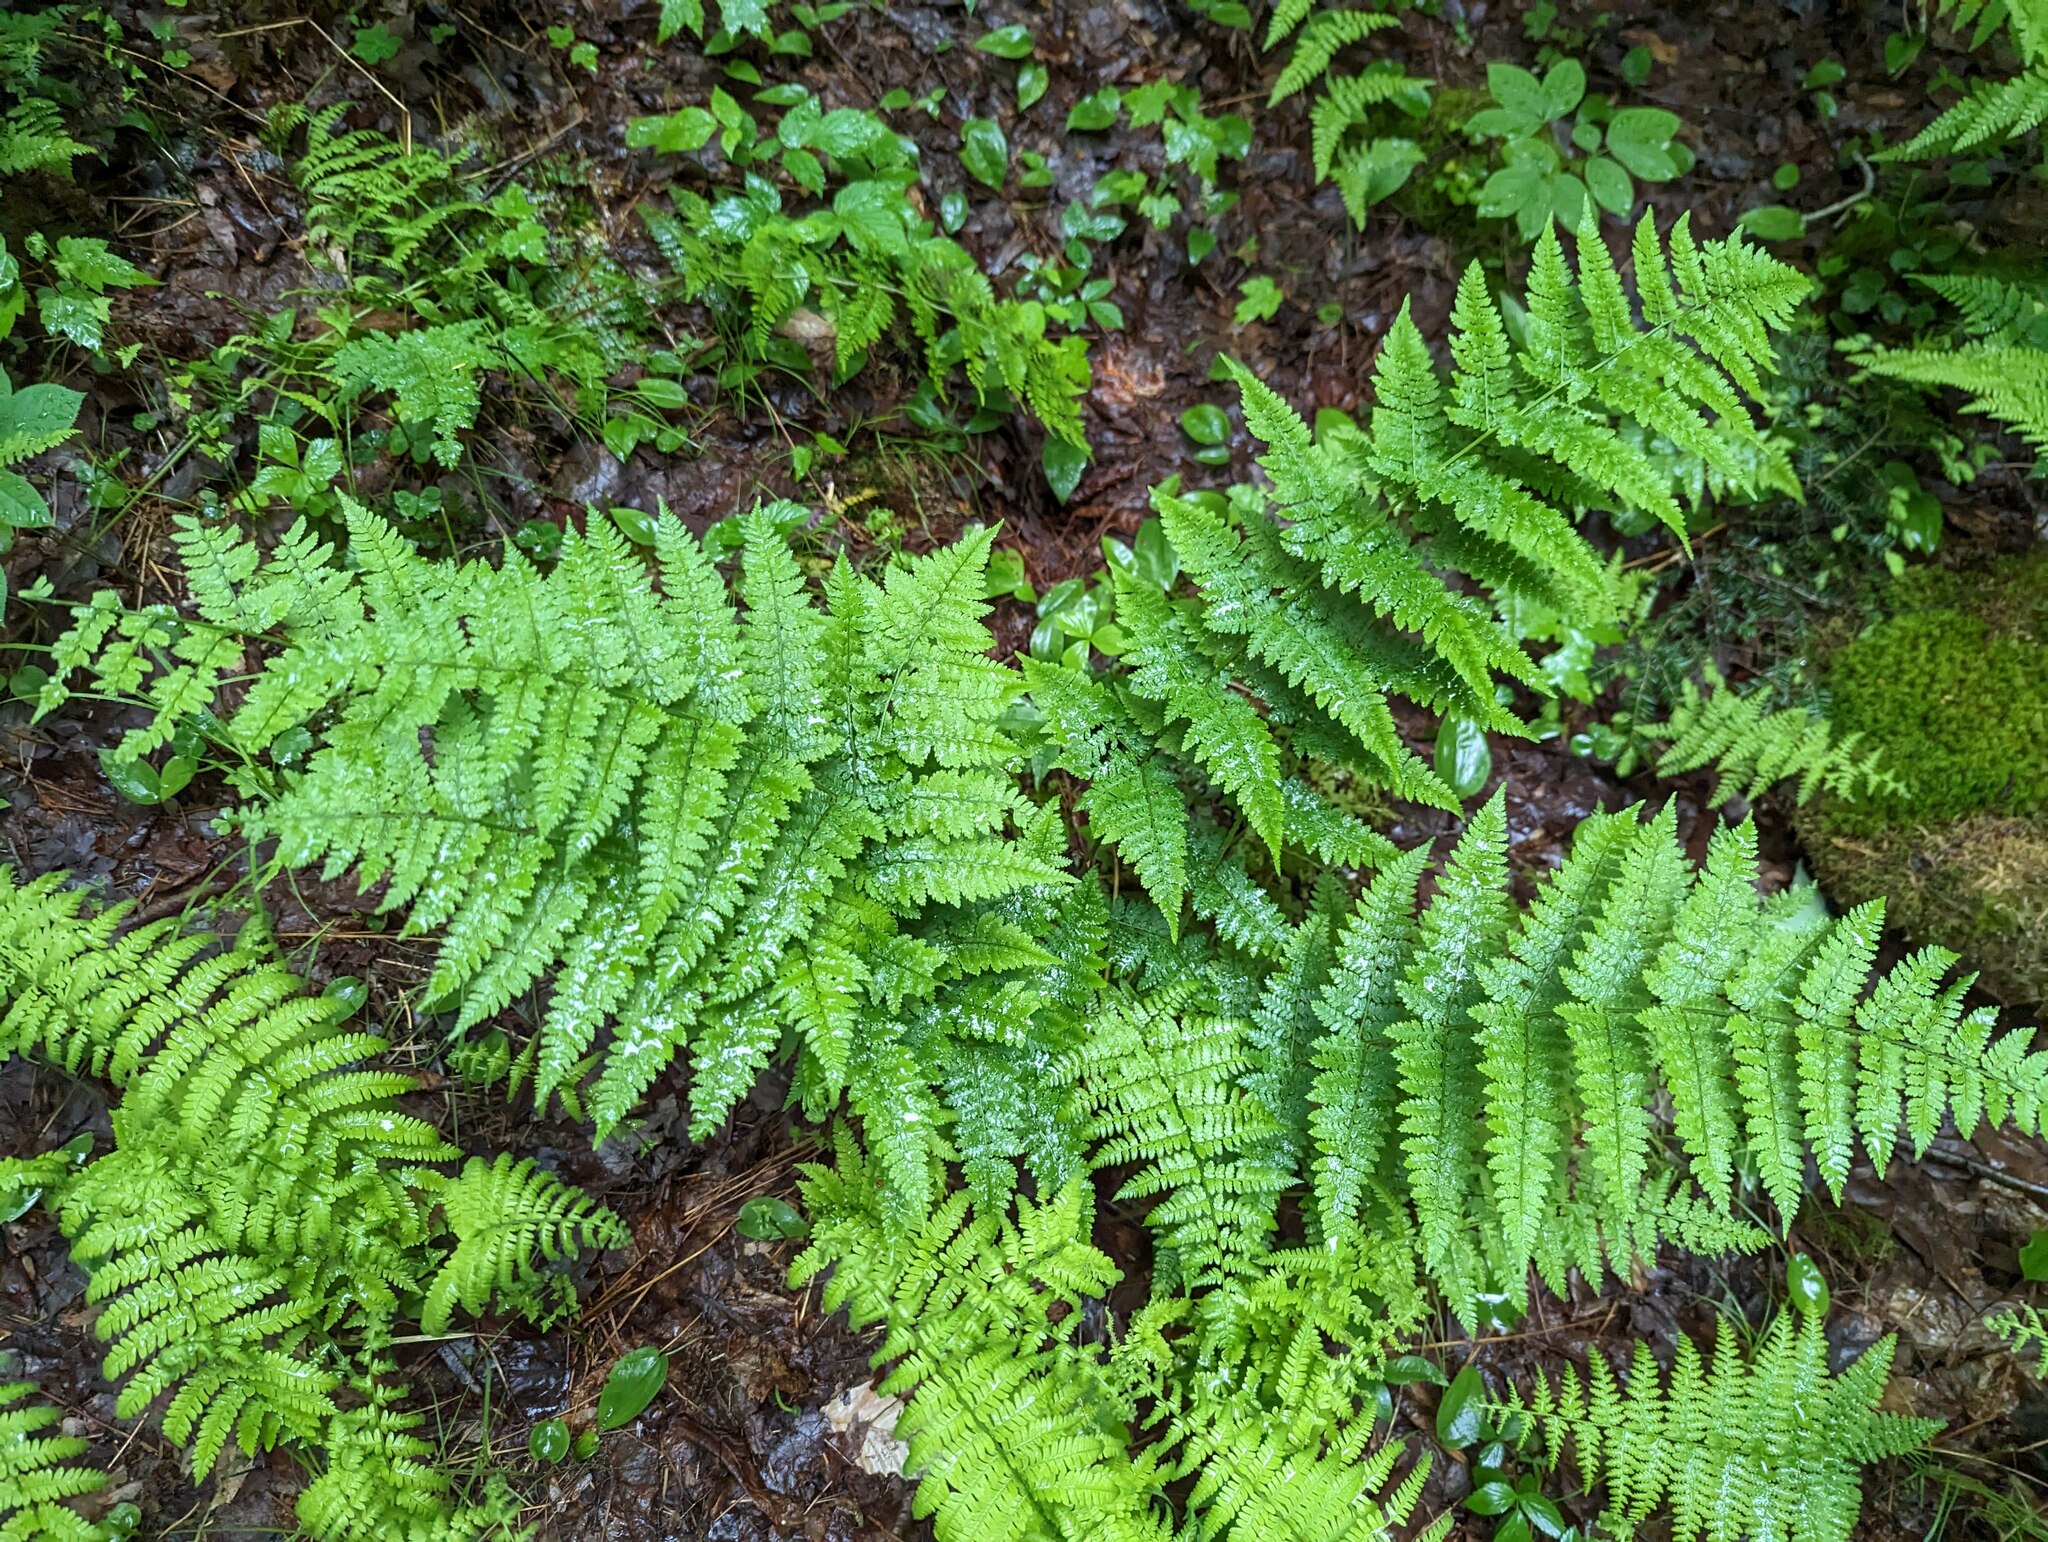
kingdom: Plantae
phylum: Tracheophyta
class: Polypodiopsida
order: Polypodiales
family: Dryopteridaceae
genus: Dryopteris
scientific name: Dryopteris intermedia
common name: Evergreen wood fern
